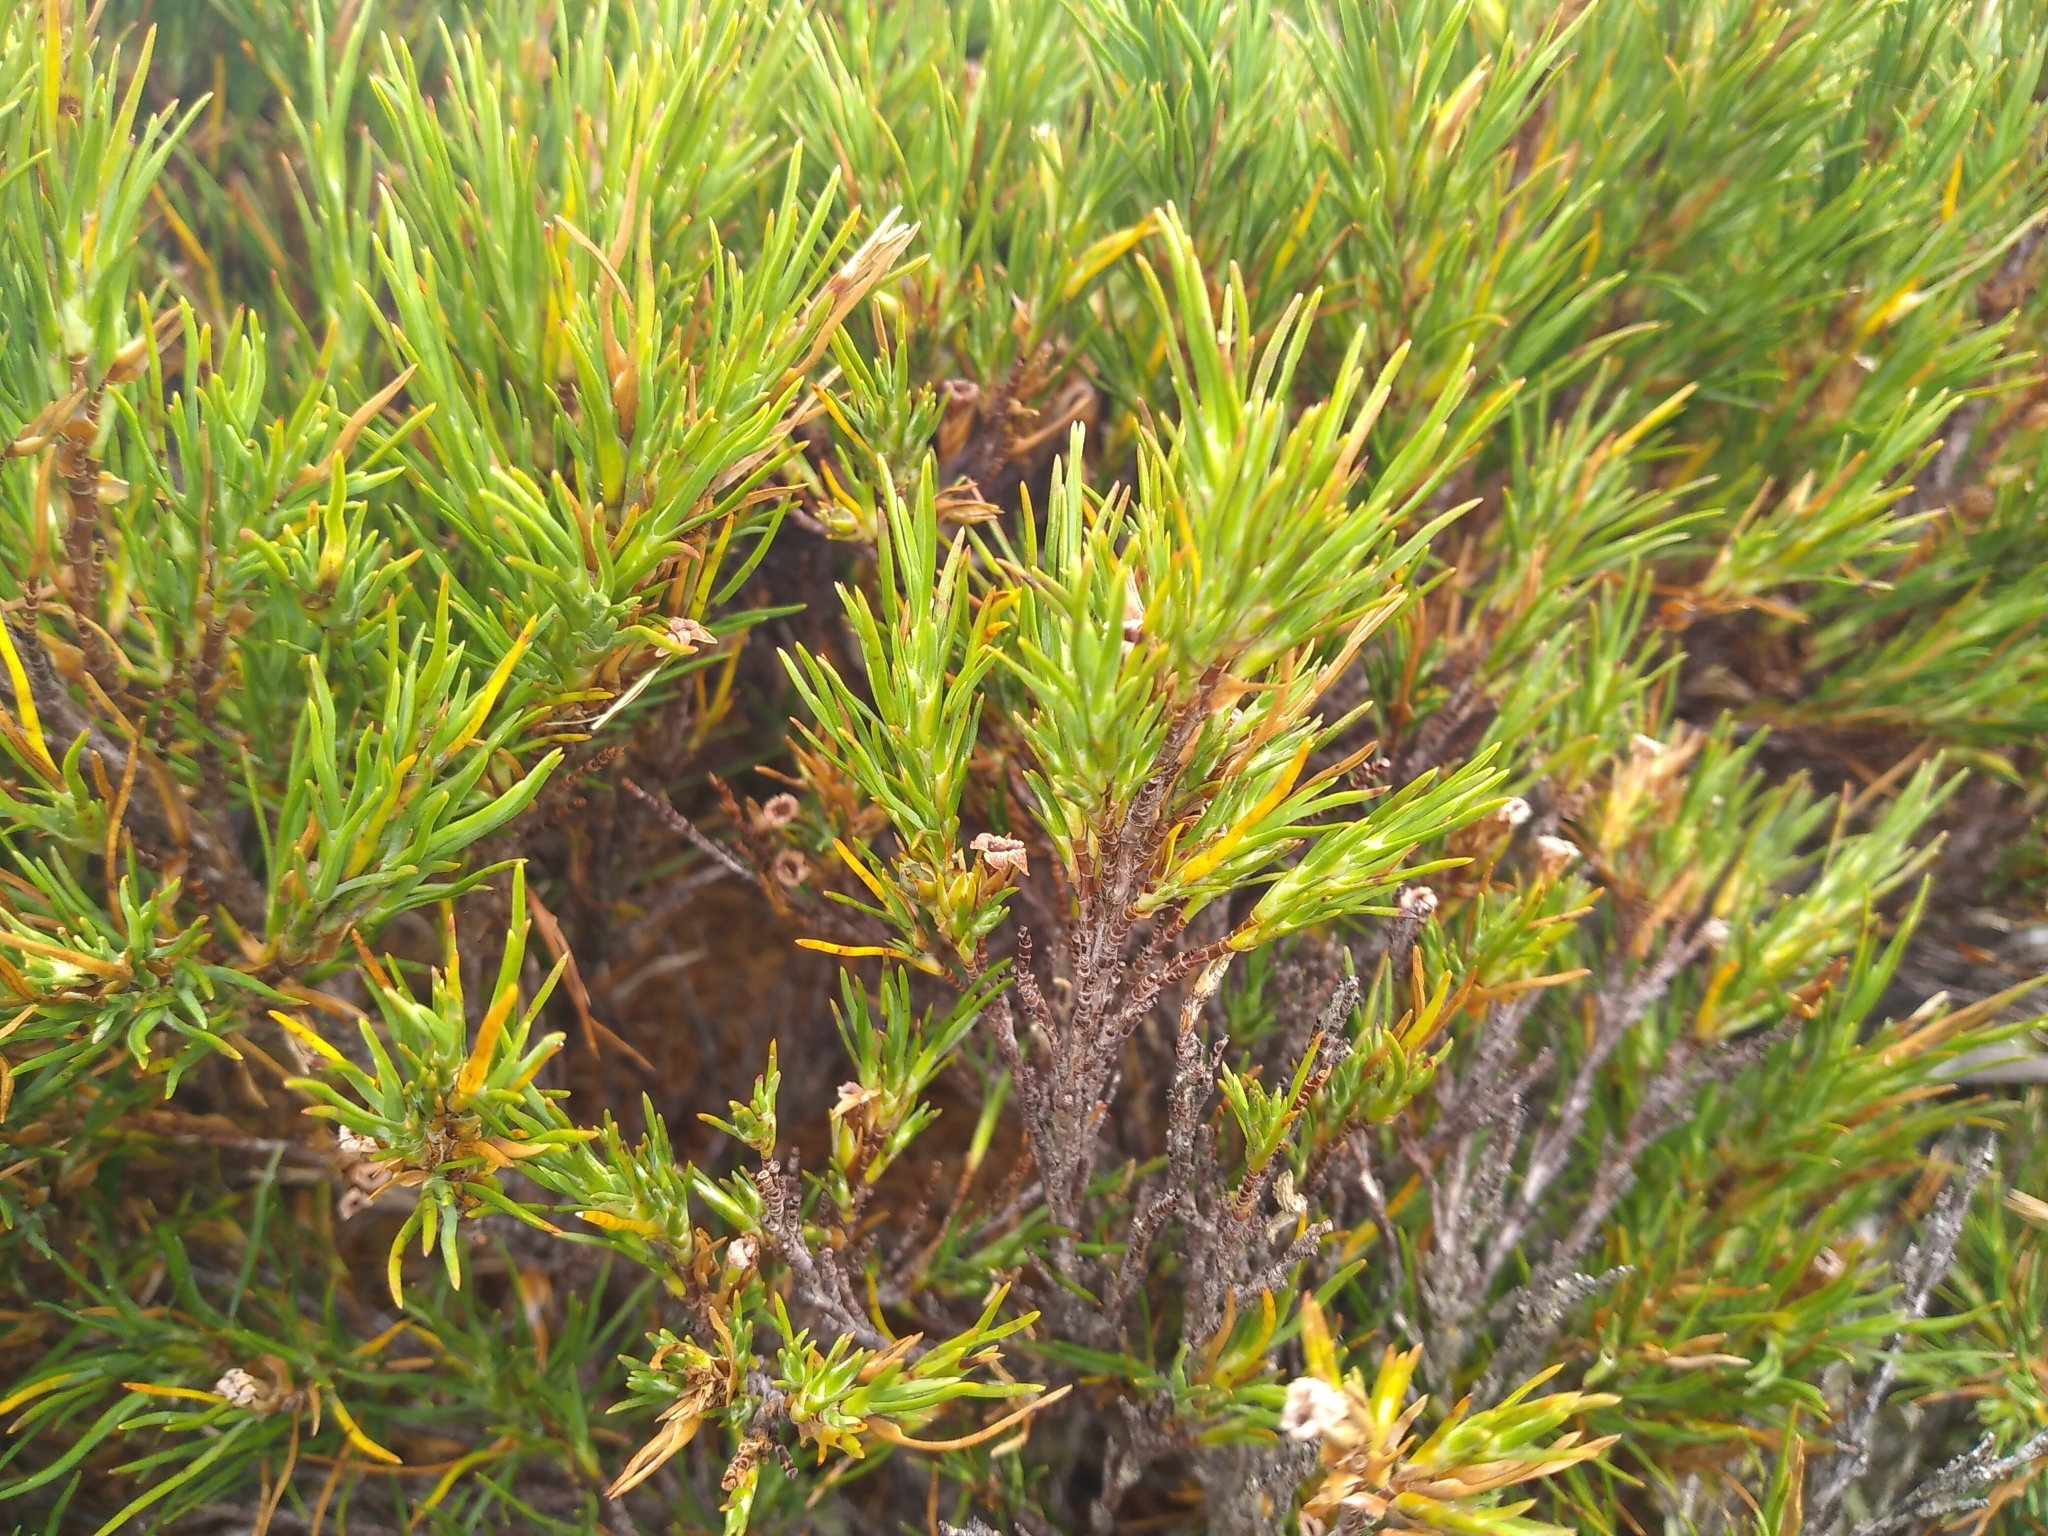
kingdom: Plantae
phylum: Tracheophyta
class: Magnoliopsida
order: Ericales
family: Ericaceae
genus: Dracophyllum
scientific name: Dracophyllum rosmarinifolium
